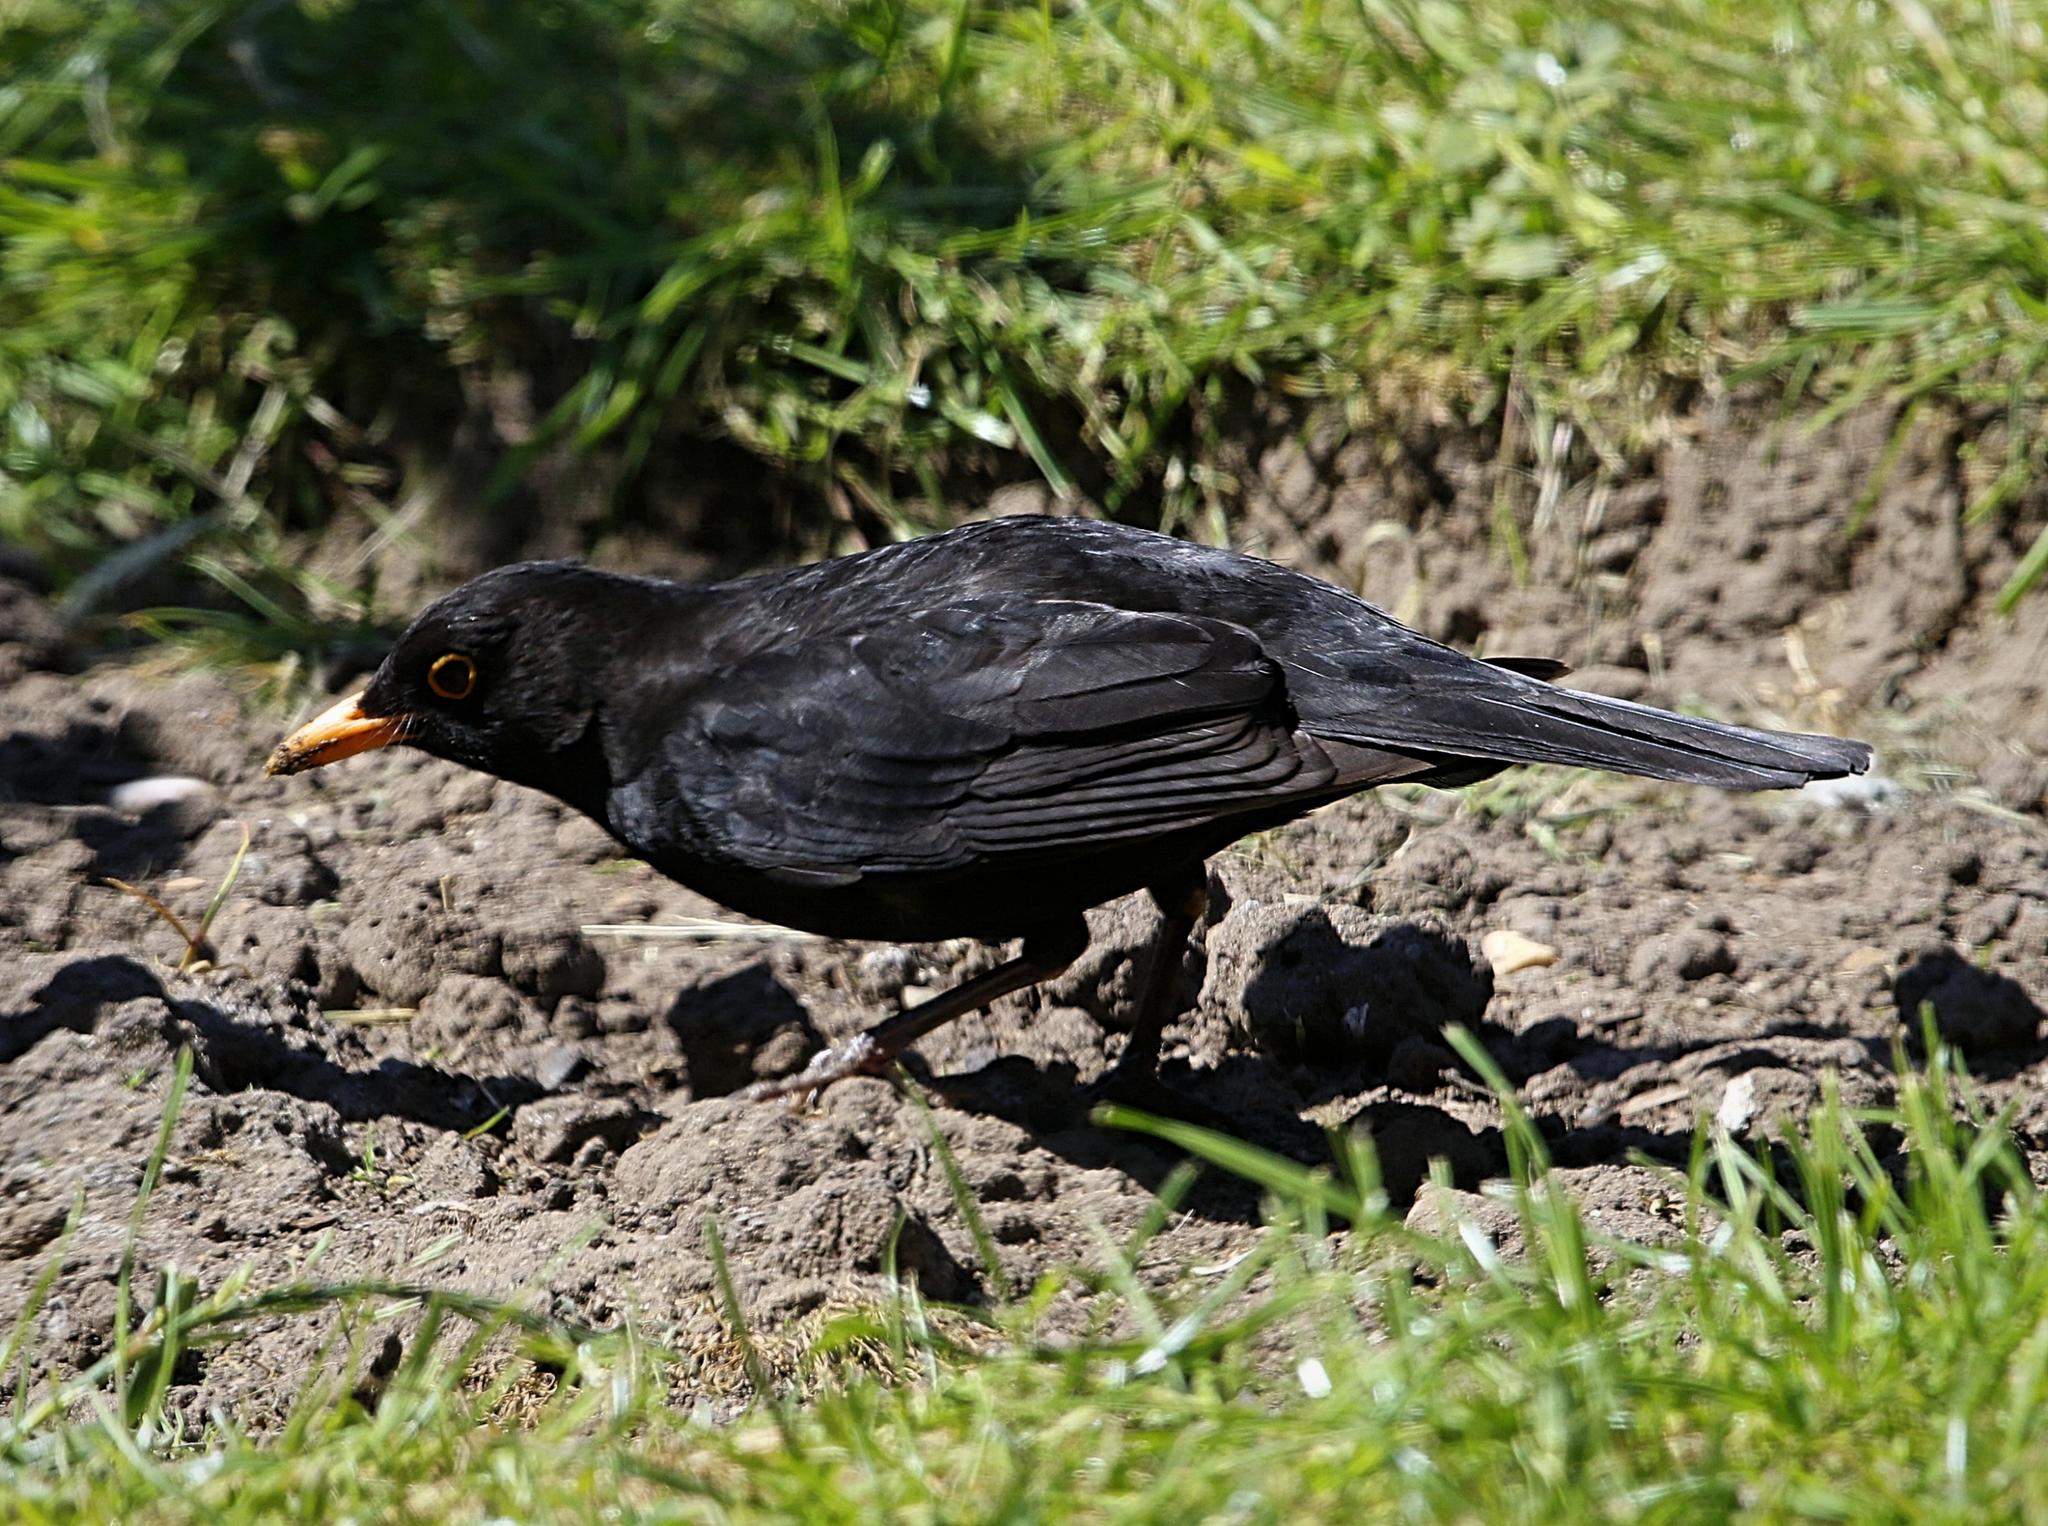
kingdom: Animalia
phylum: Chordata
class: Aves
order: Passeriformes
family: Turdidae
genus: Turdus
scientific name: Turdus merula
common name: Common blackbird
